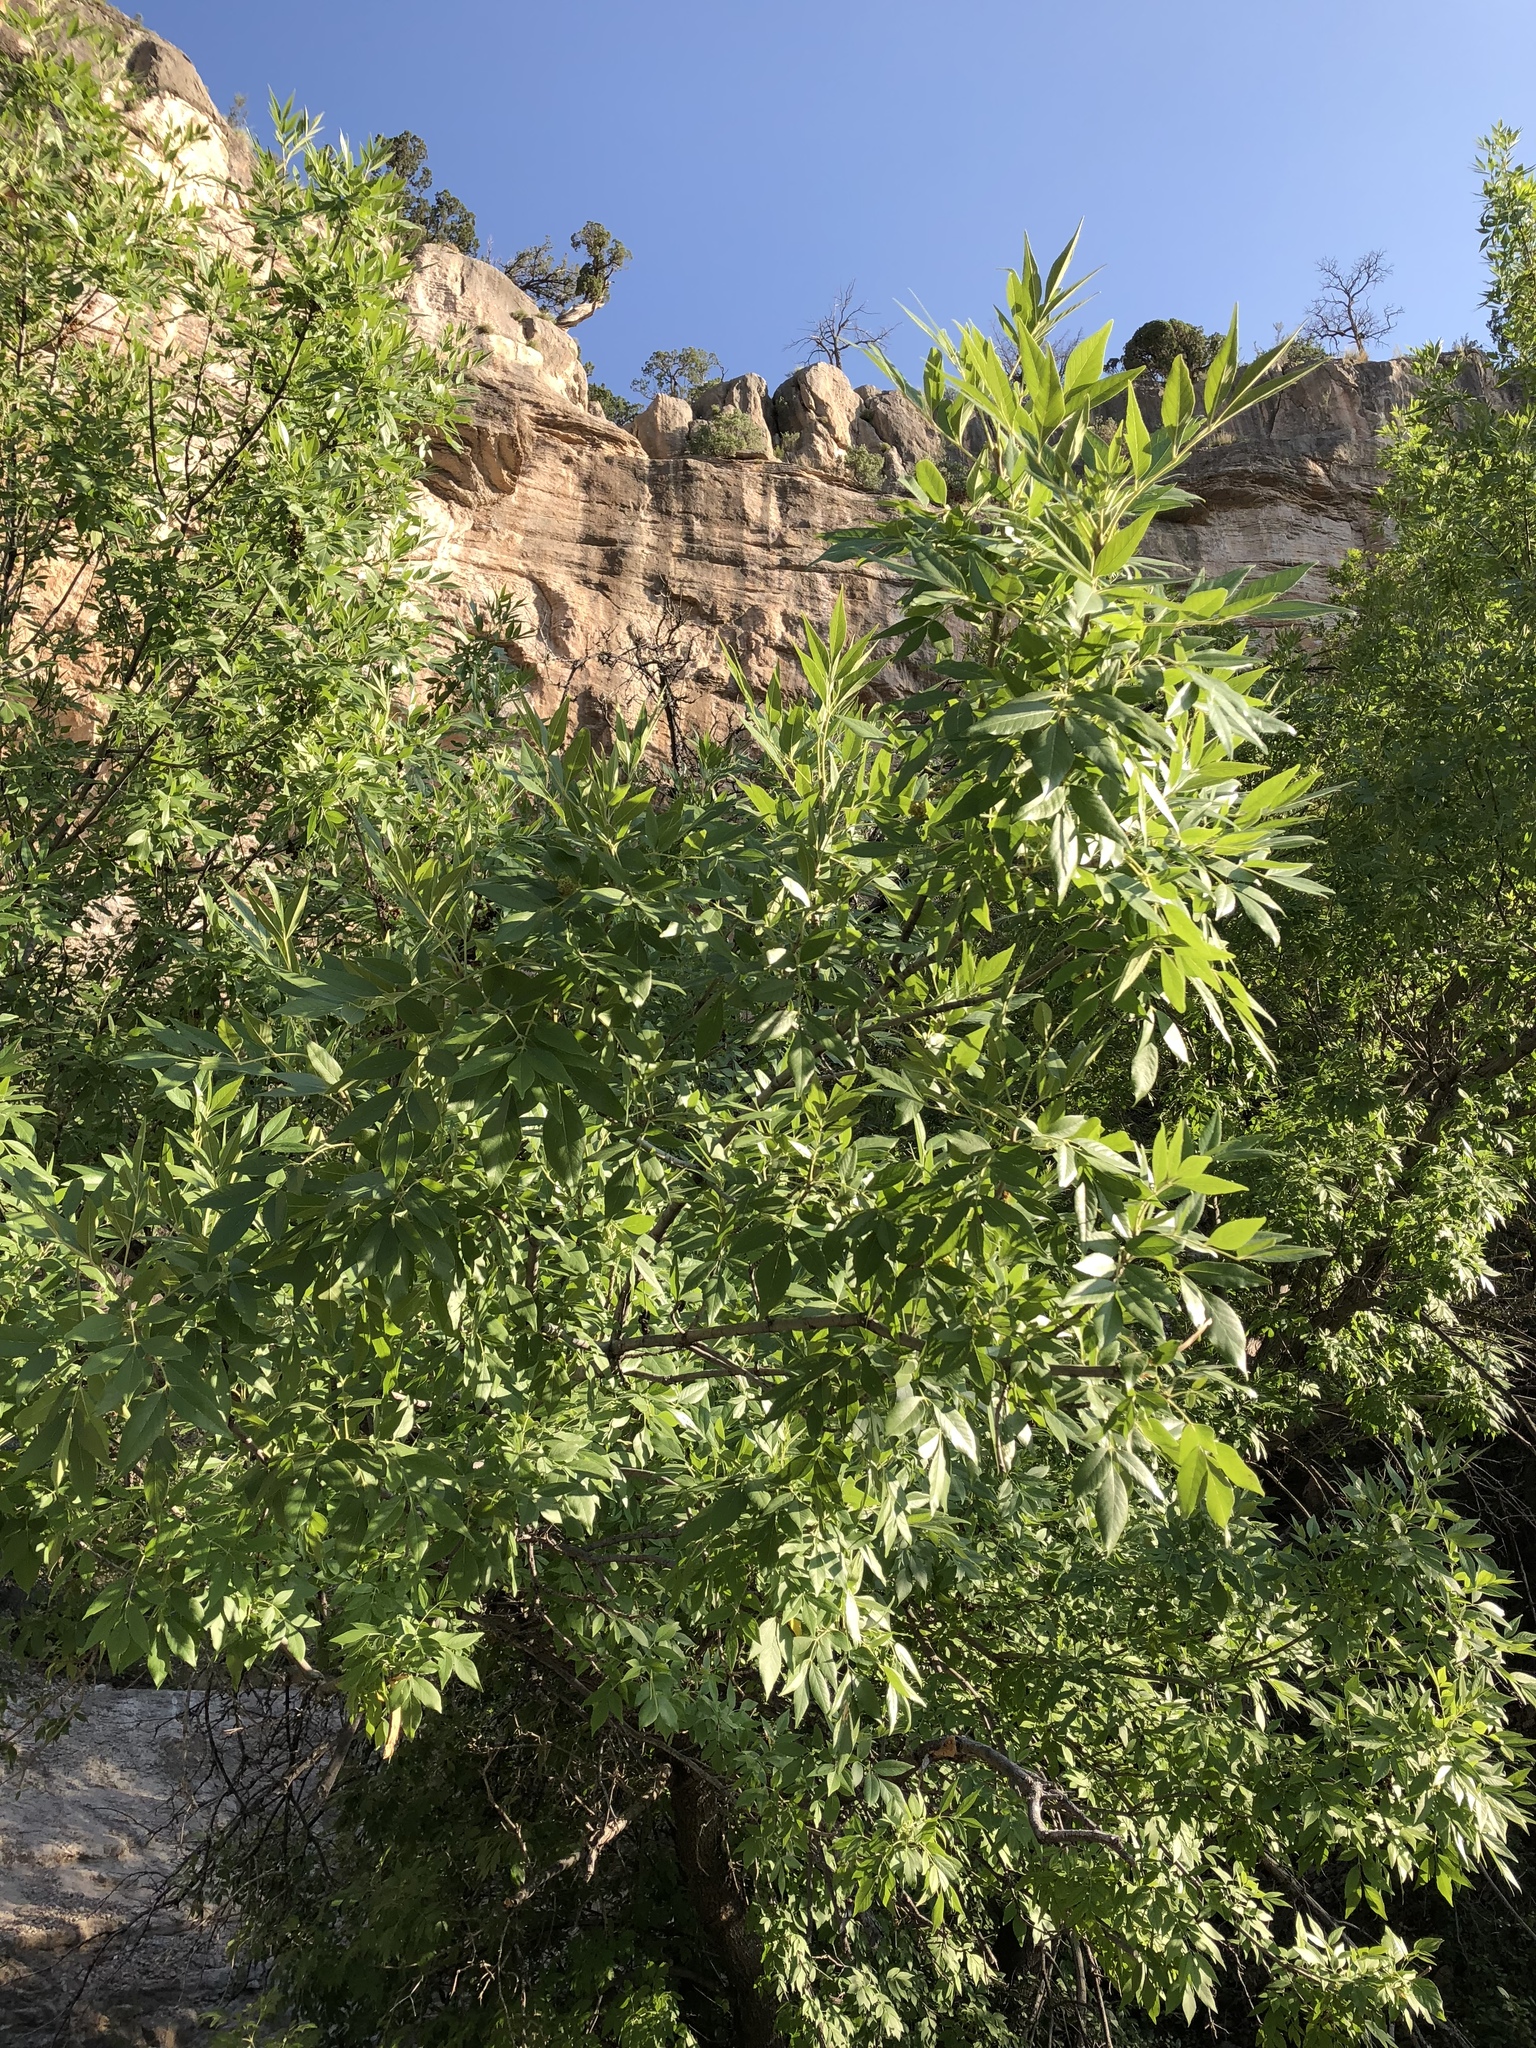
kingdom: Plantae
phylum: Tracheophyta
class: Magnoliopsida
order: Lamiales
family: Oleaceae
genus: Fraxinus
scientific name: Fraxinus velutina
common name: Arizon ash
